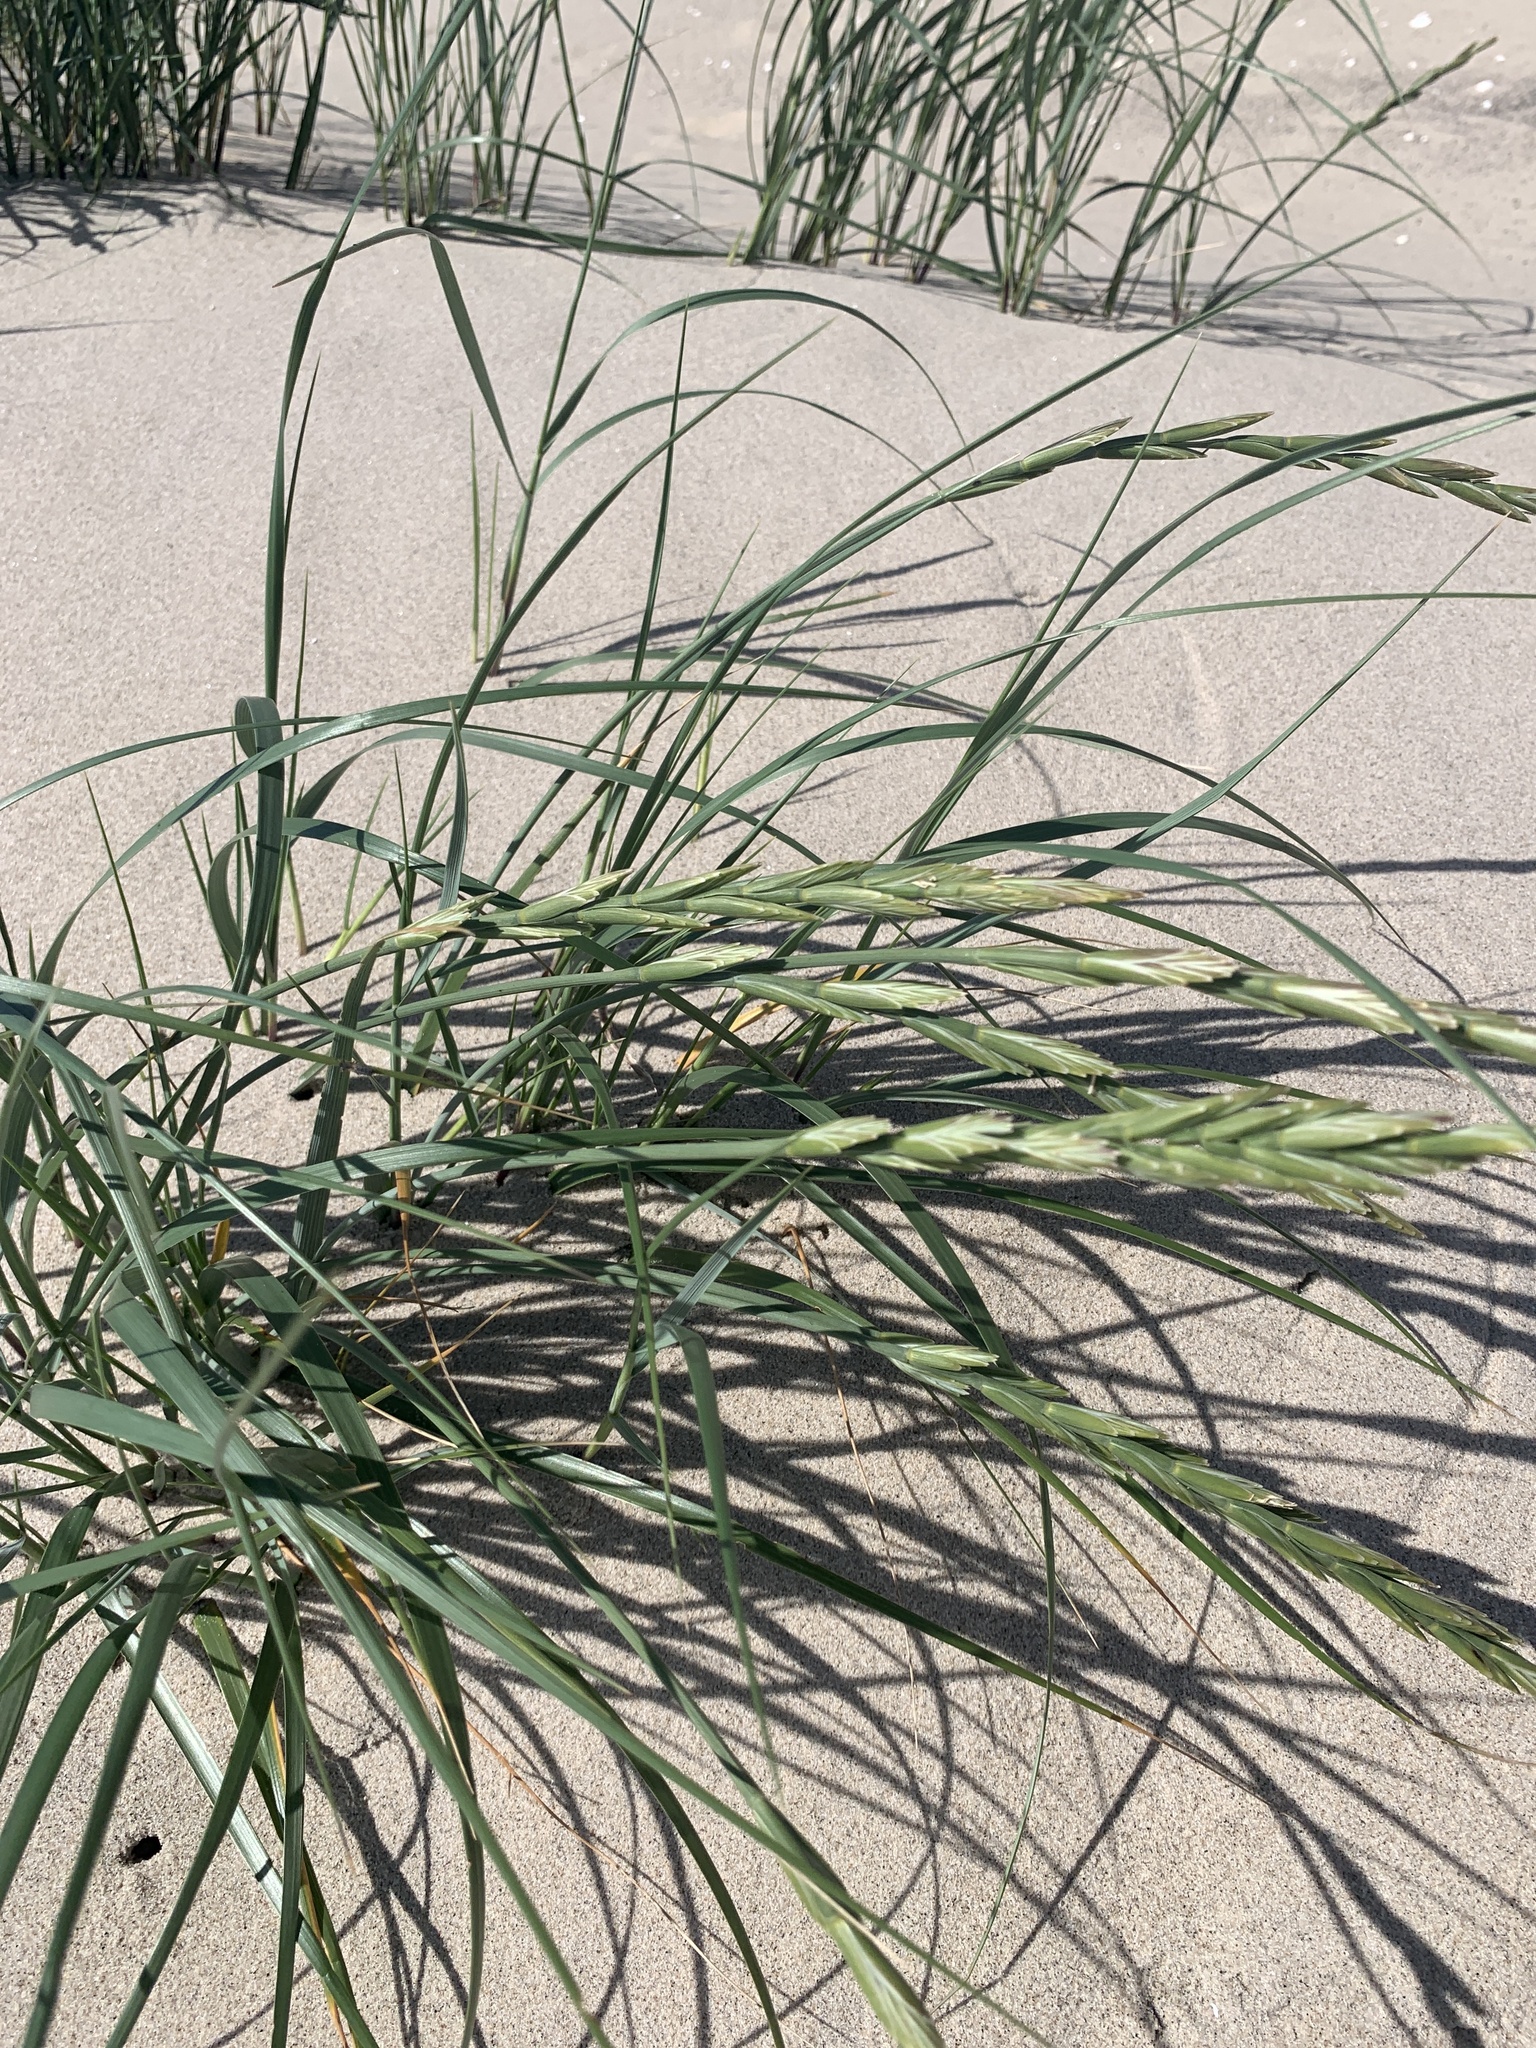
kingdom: Plantae
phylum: Tracheophyta
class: Liliopsida
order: Poales
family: Poaceae
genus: Leymus
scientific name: Leymus arenarius
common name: Lyme-grass
